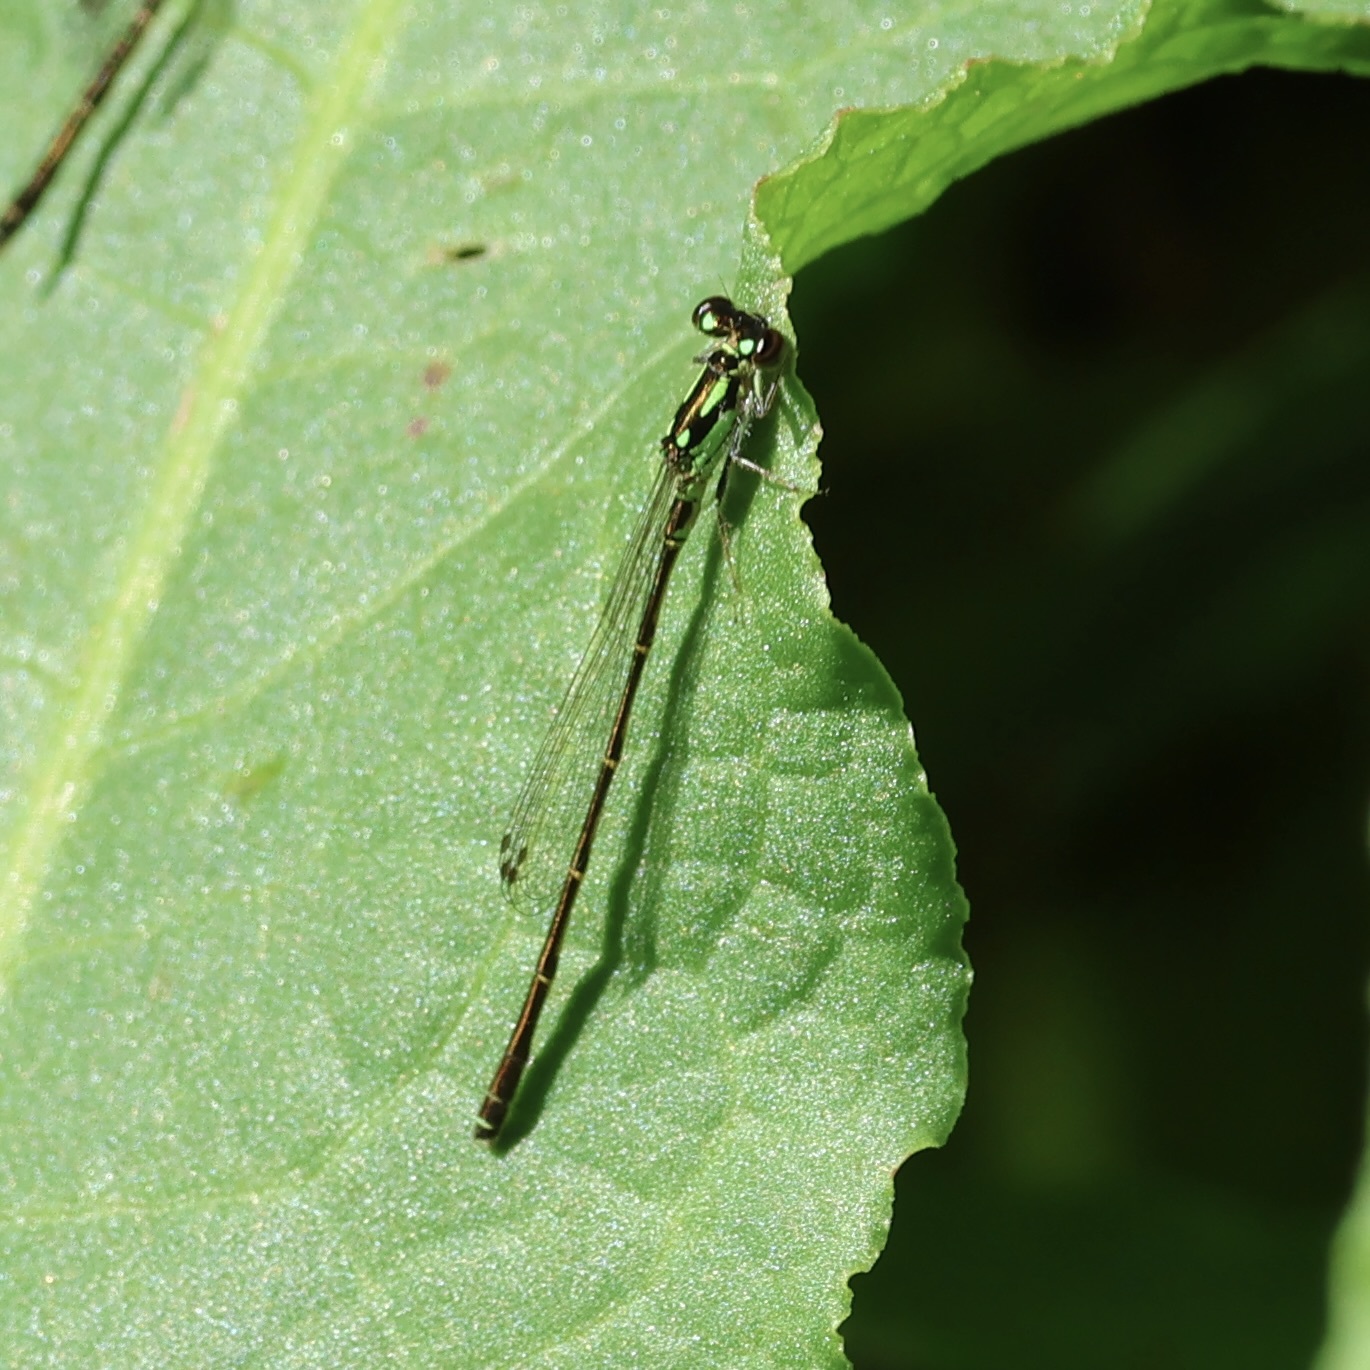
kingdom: Animalia
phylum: Arthropoda
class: Insecta
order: Odonata
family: Coenagrionidae
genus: Ischnura
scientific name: Ischnura posita
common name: Fragile forktail
